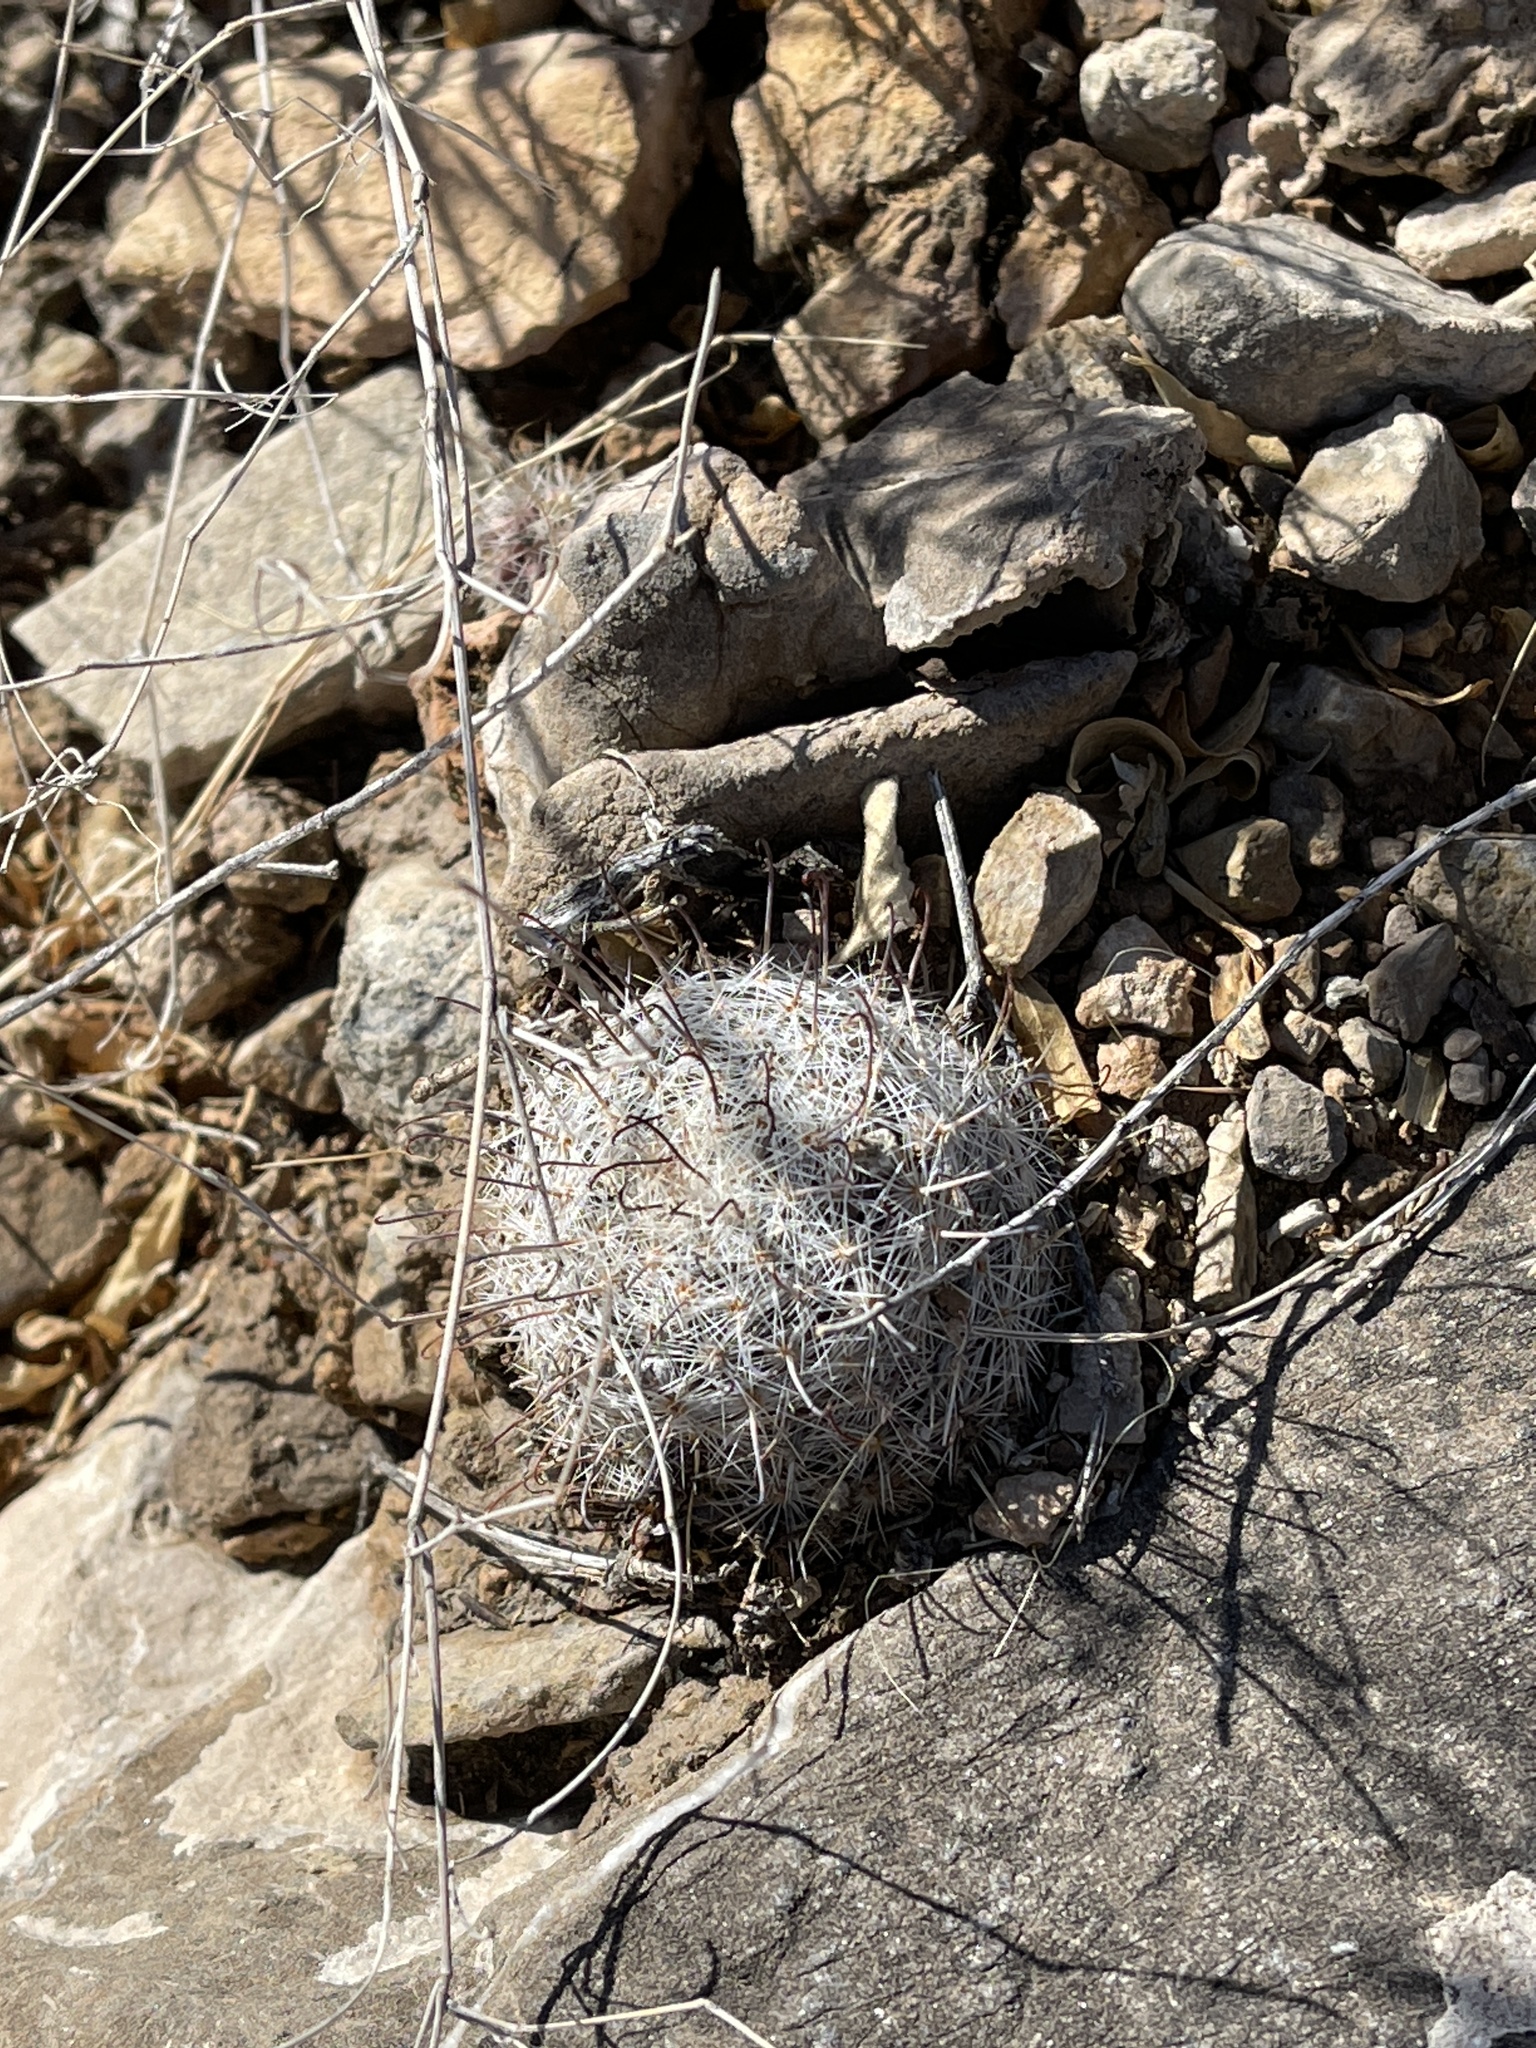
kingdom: Plantae
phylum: Tracheophyta
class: Magnoliopsida
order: Caryophyllales
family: Cactaceae
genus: Cochemiea
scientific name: Cochemiea grahamii
